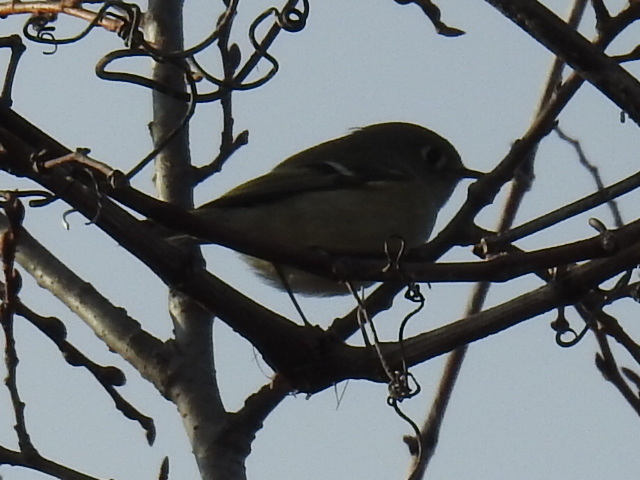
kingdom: Animalia
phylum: Chordata
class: Aves
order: Passeriformes
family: Regulidae
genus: Regulus
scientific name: Regulus calendula
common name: Ruby-crowned kinglet
